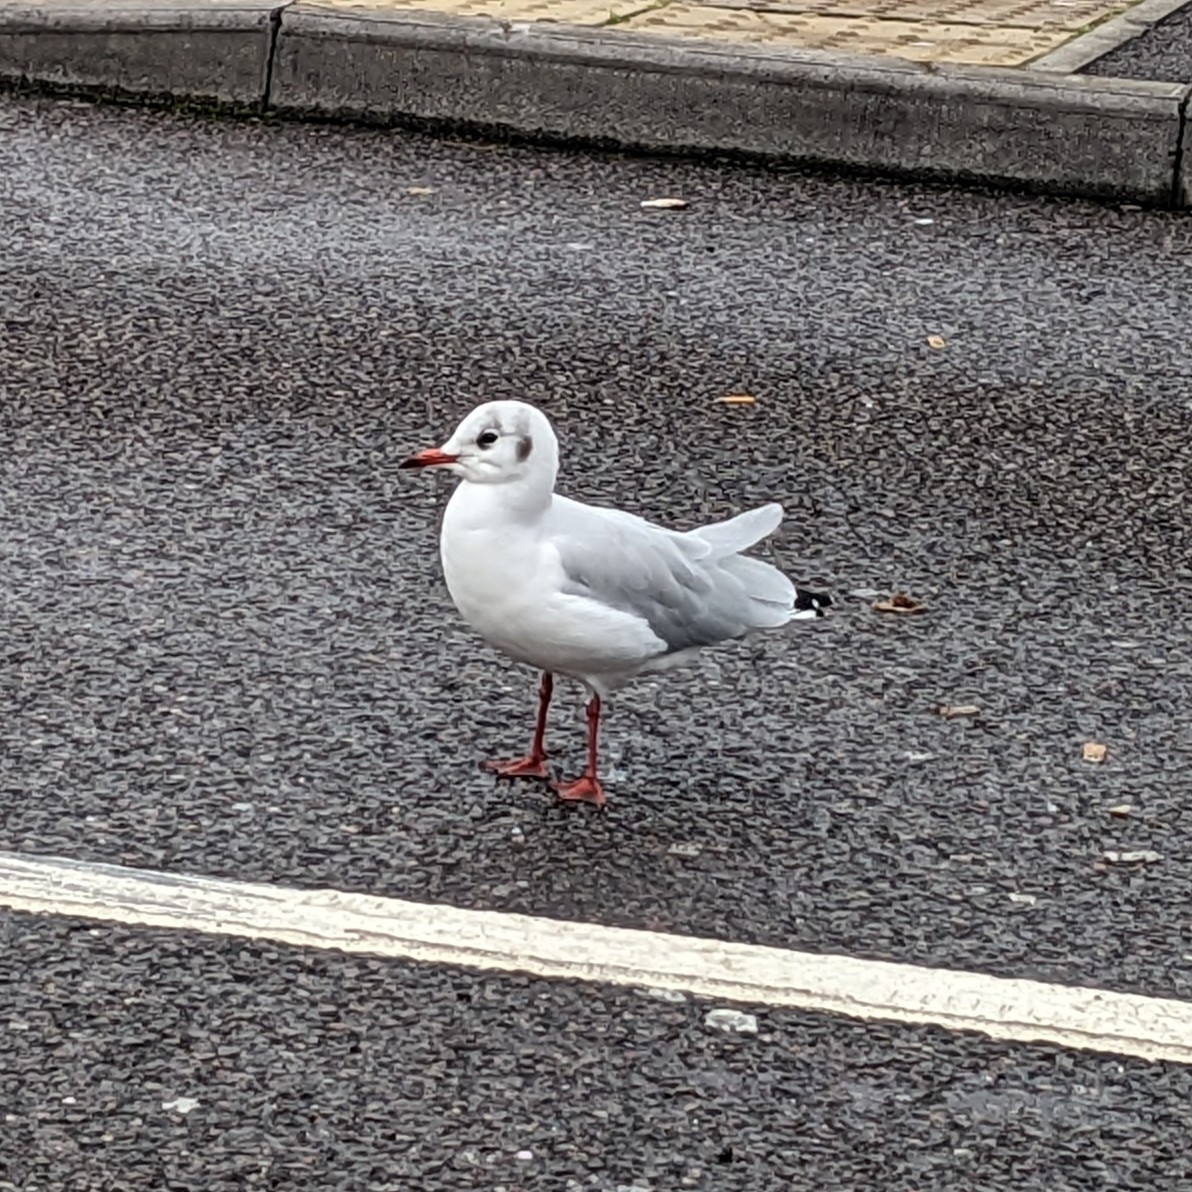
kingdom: Animalia
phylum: Chordata
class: Aves
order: Charadriiformes
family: Laridae
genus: Chroicocephalus
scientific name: Chroicocephalus ridibundus
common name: Black-headed gull
